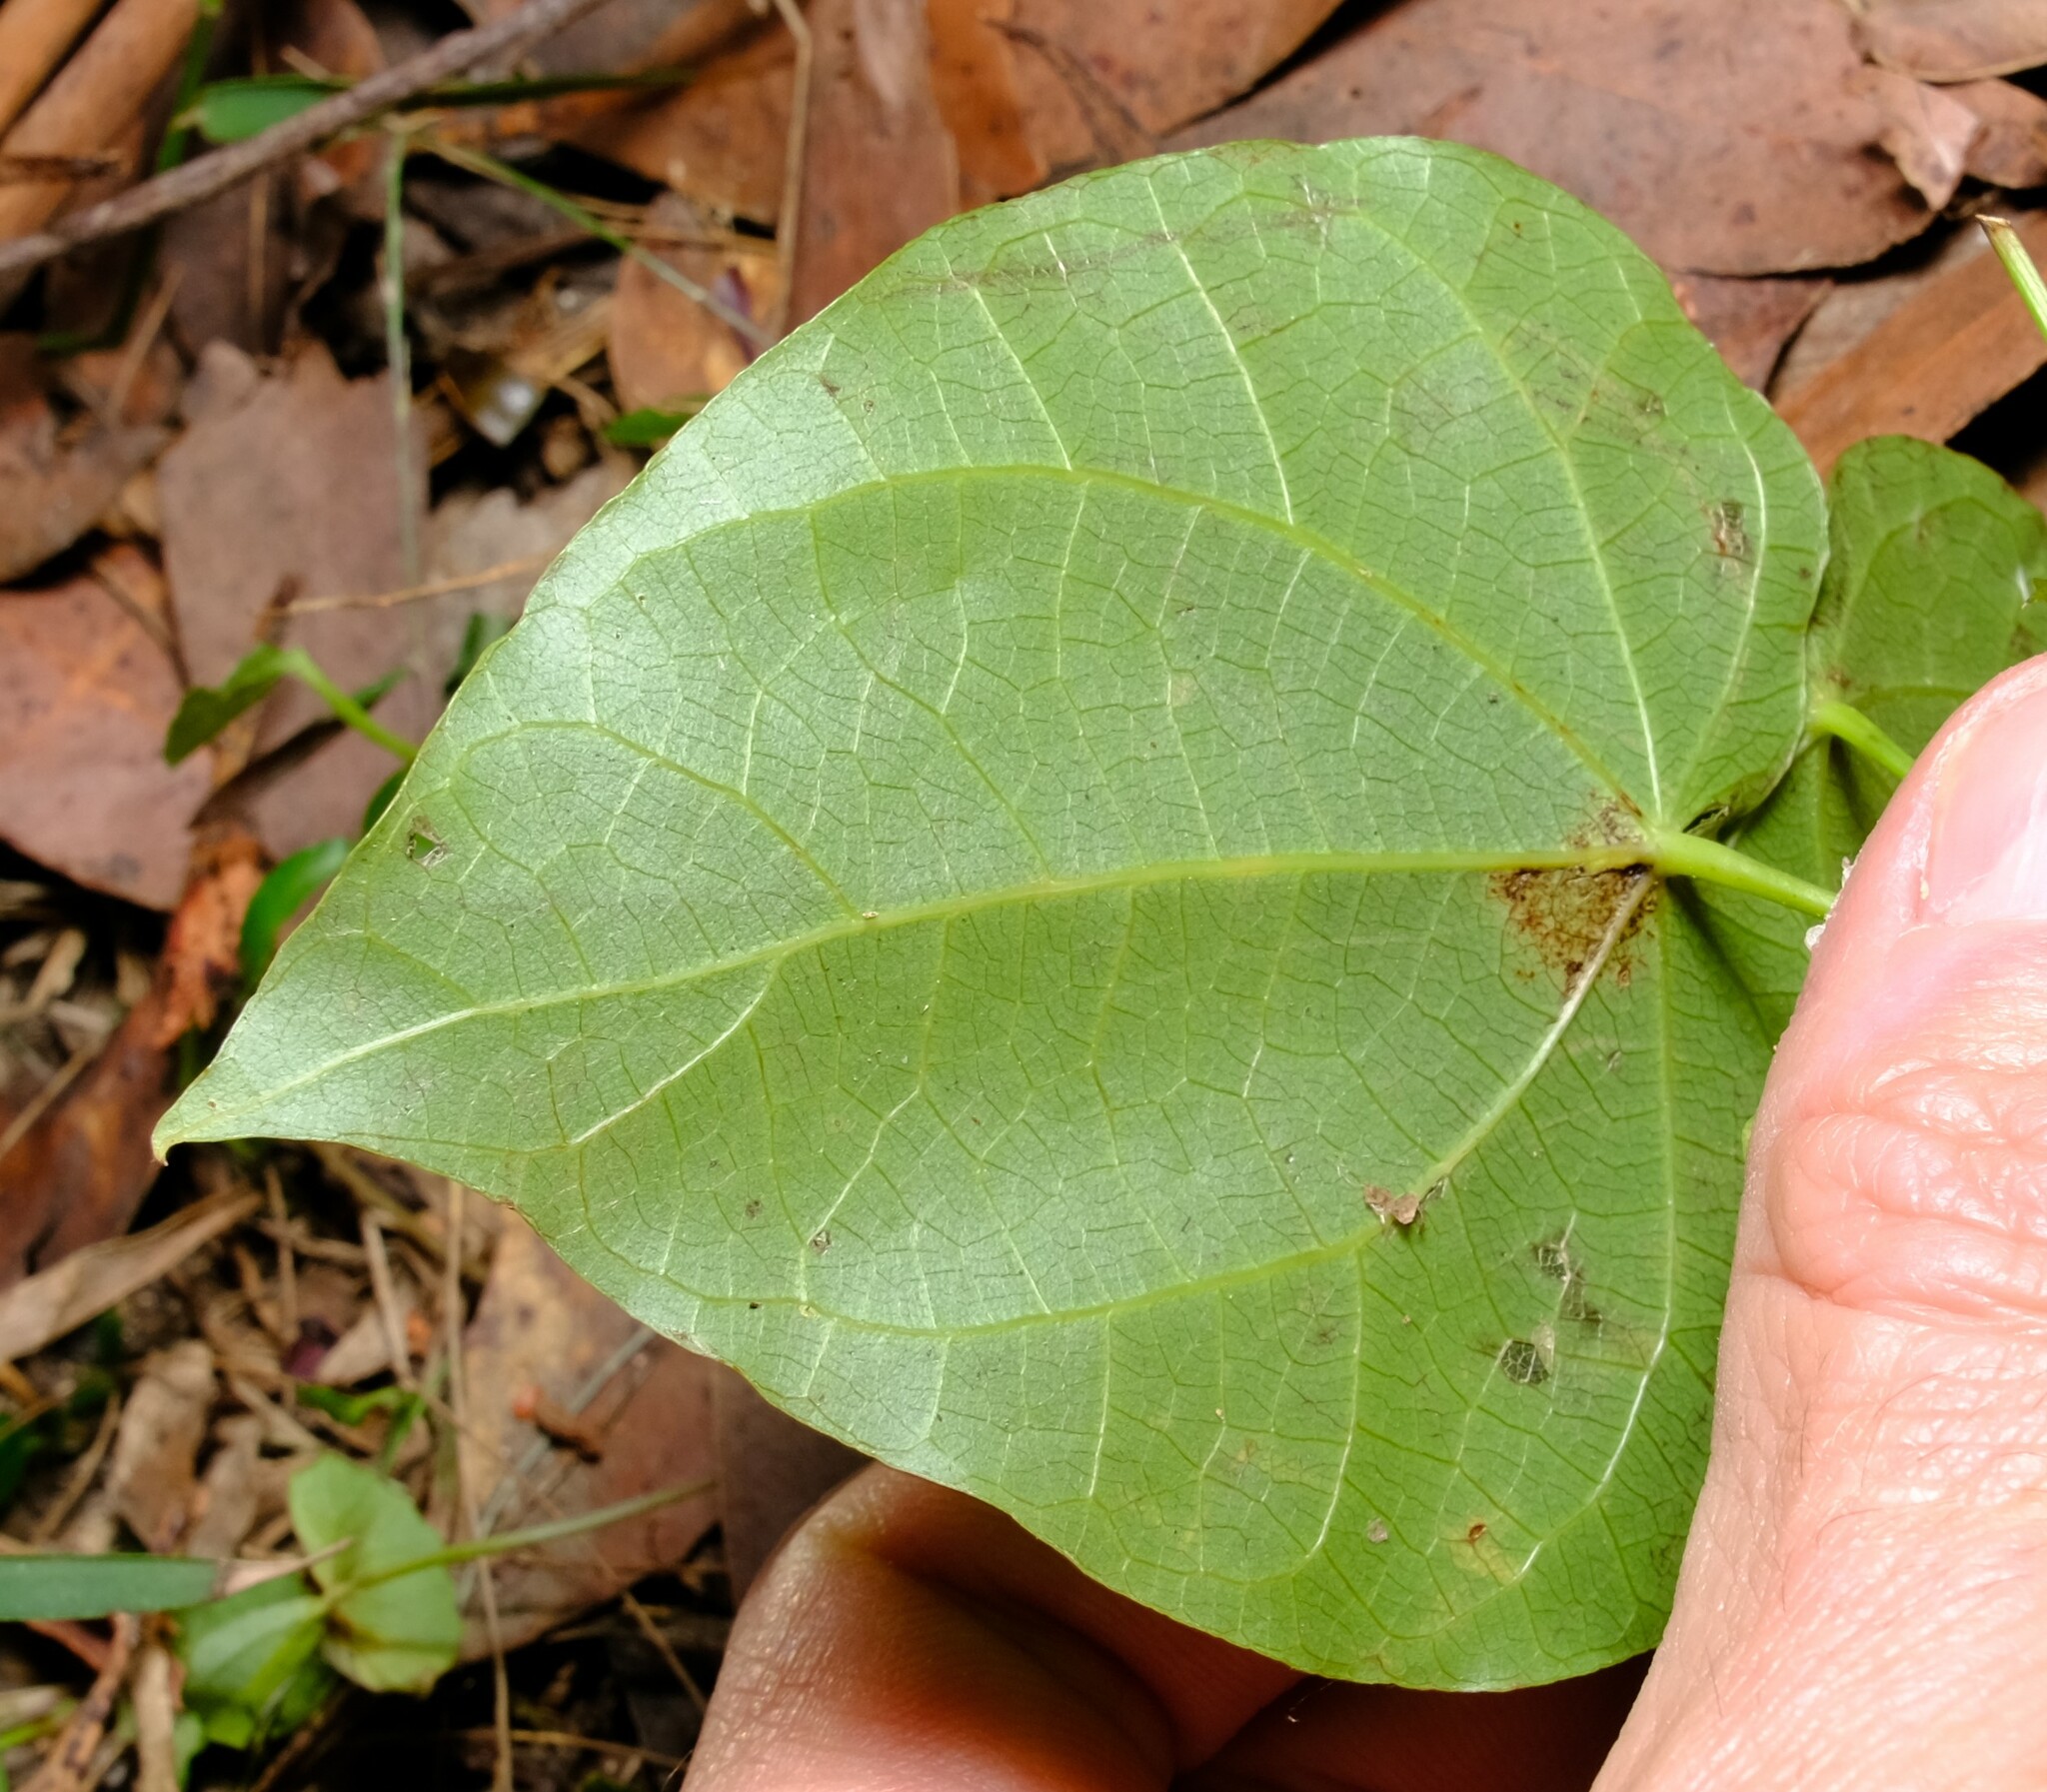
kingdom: Plantae
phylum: Tracheophyta
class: Magnoliopsida
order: Ranunculales
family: Menispermaceae
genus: Sarcopetalum
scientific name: Sarcopetalum harveyanum
